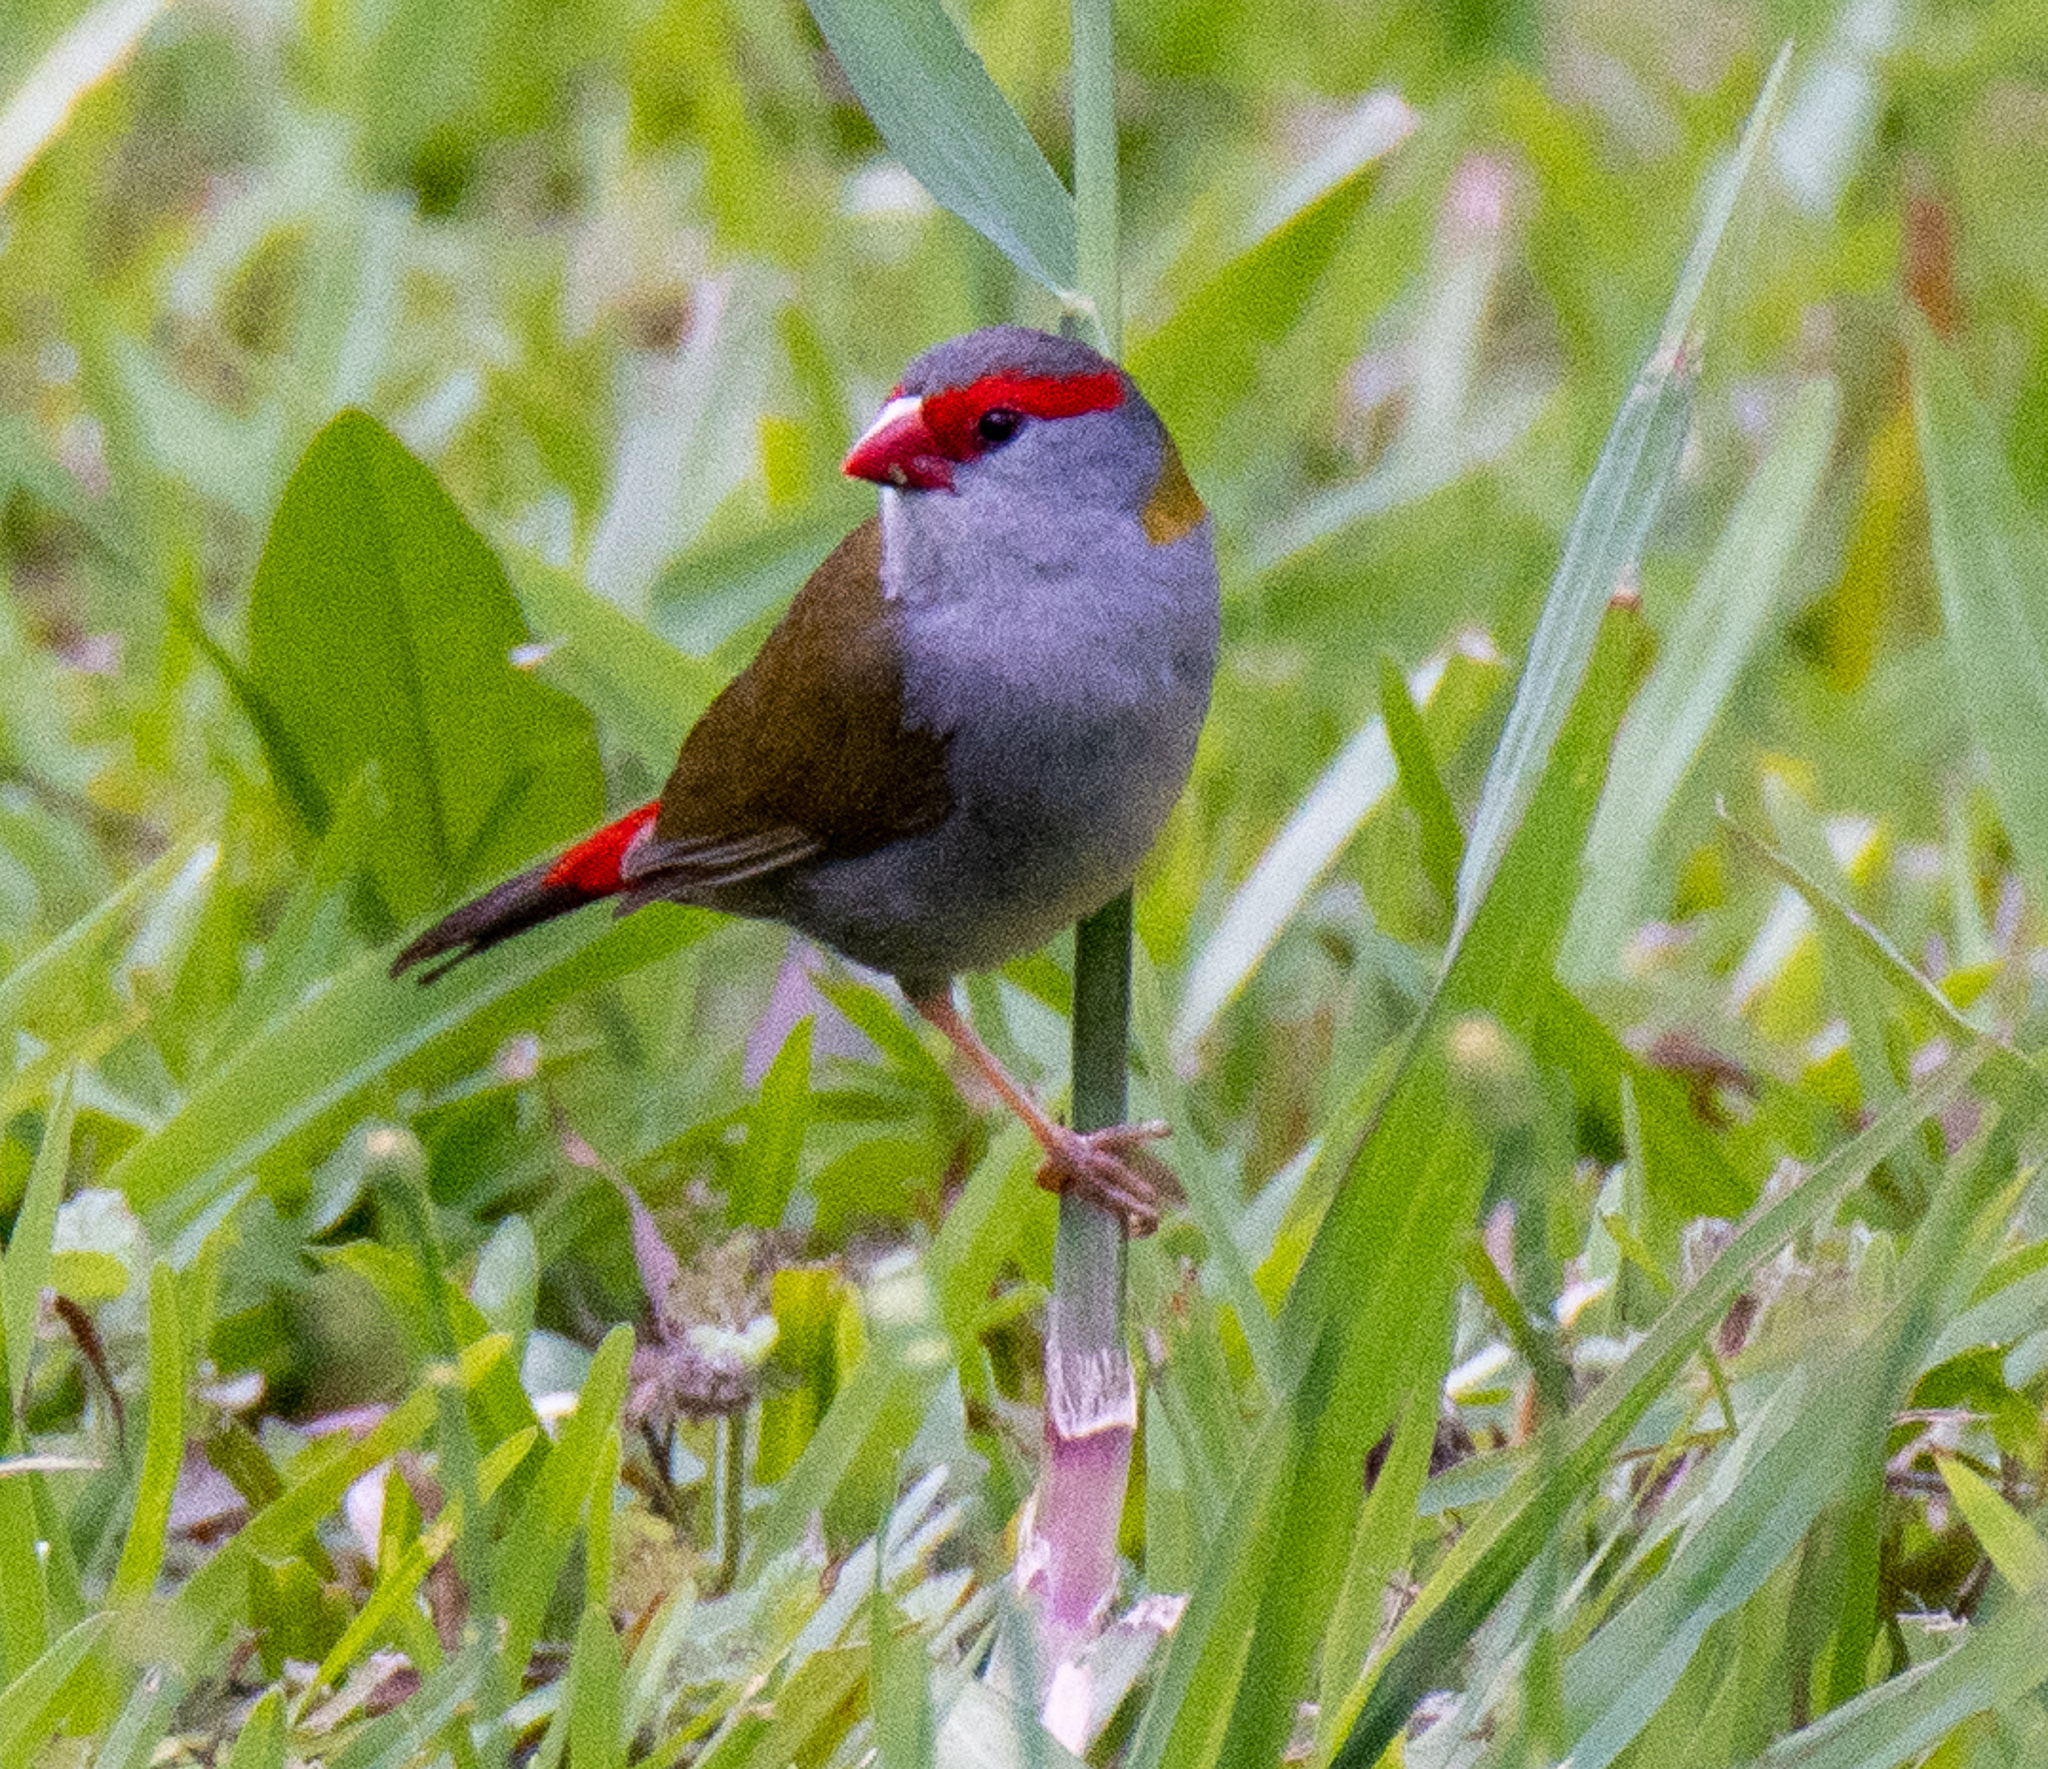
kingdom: Animalia
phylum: Chordata
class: Aves
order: Passeriformes
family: Estrildidae
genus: Neochmia
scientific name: Neochmia temporalis
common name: Red-browed finch
